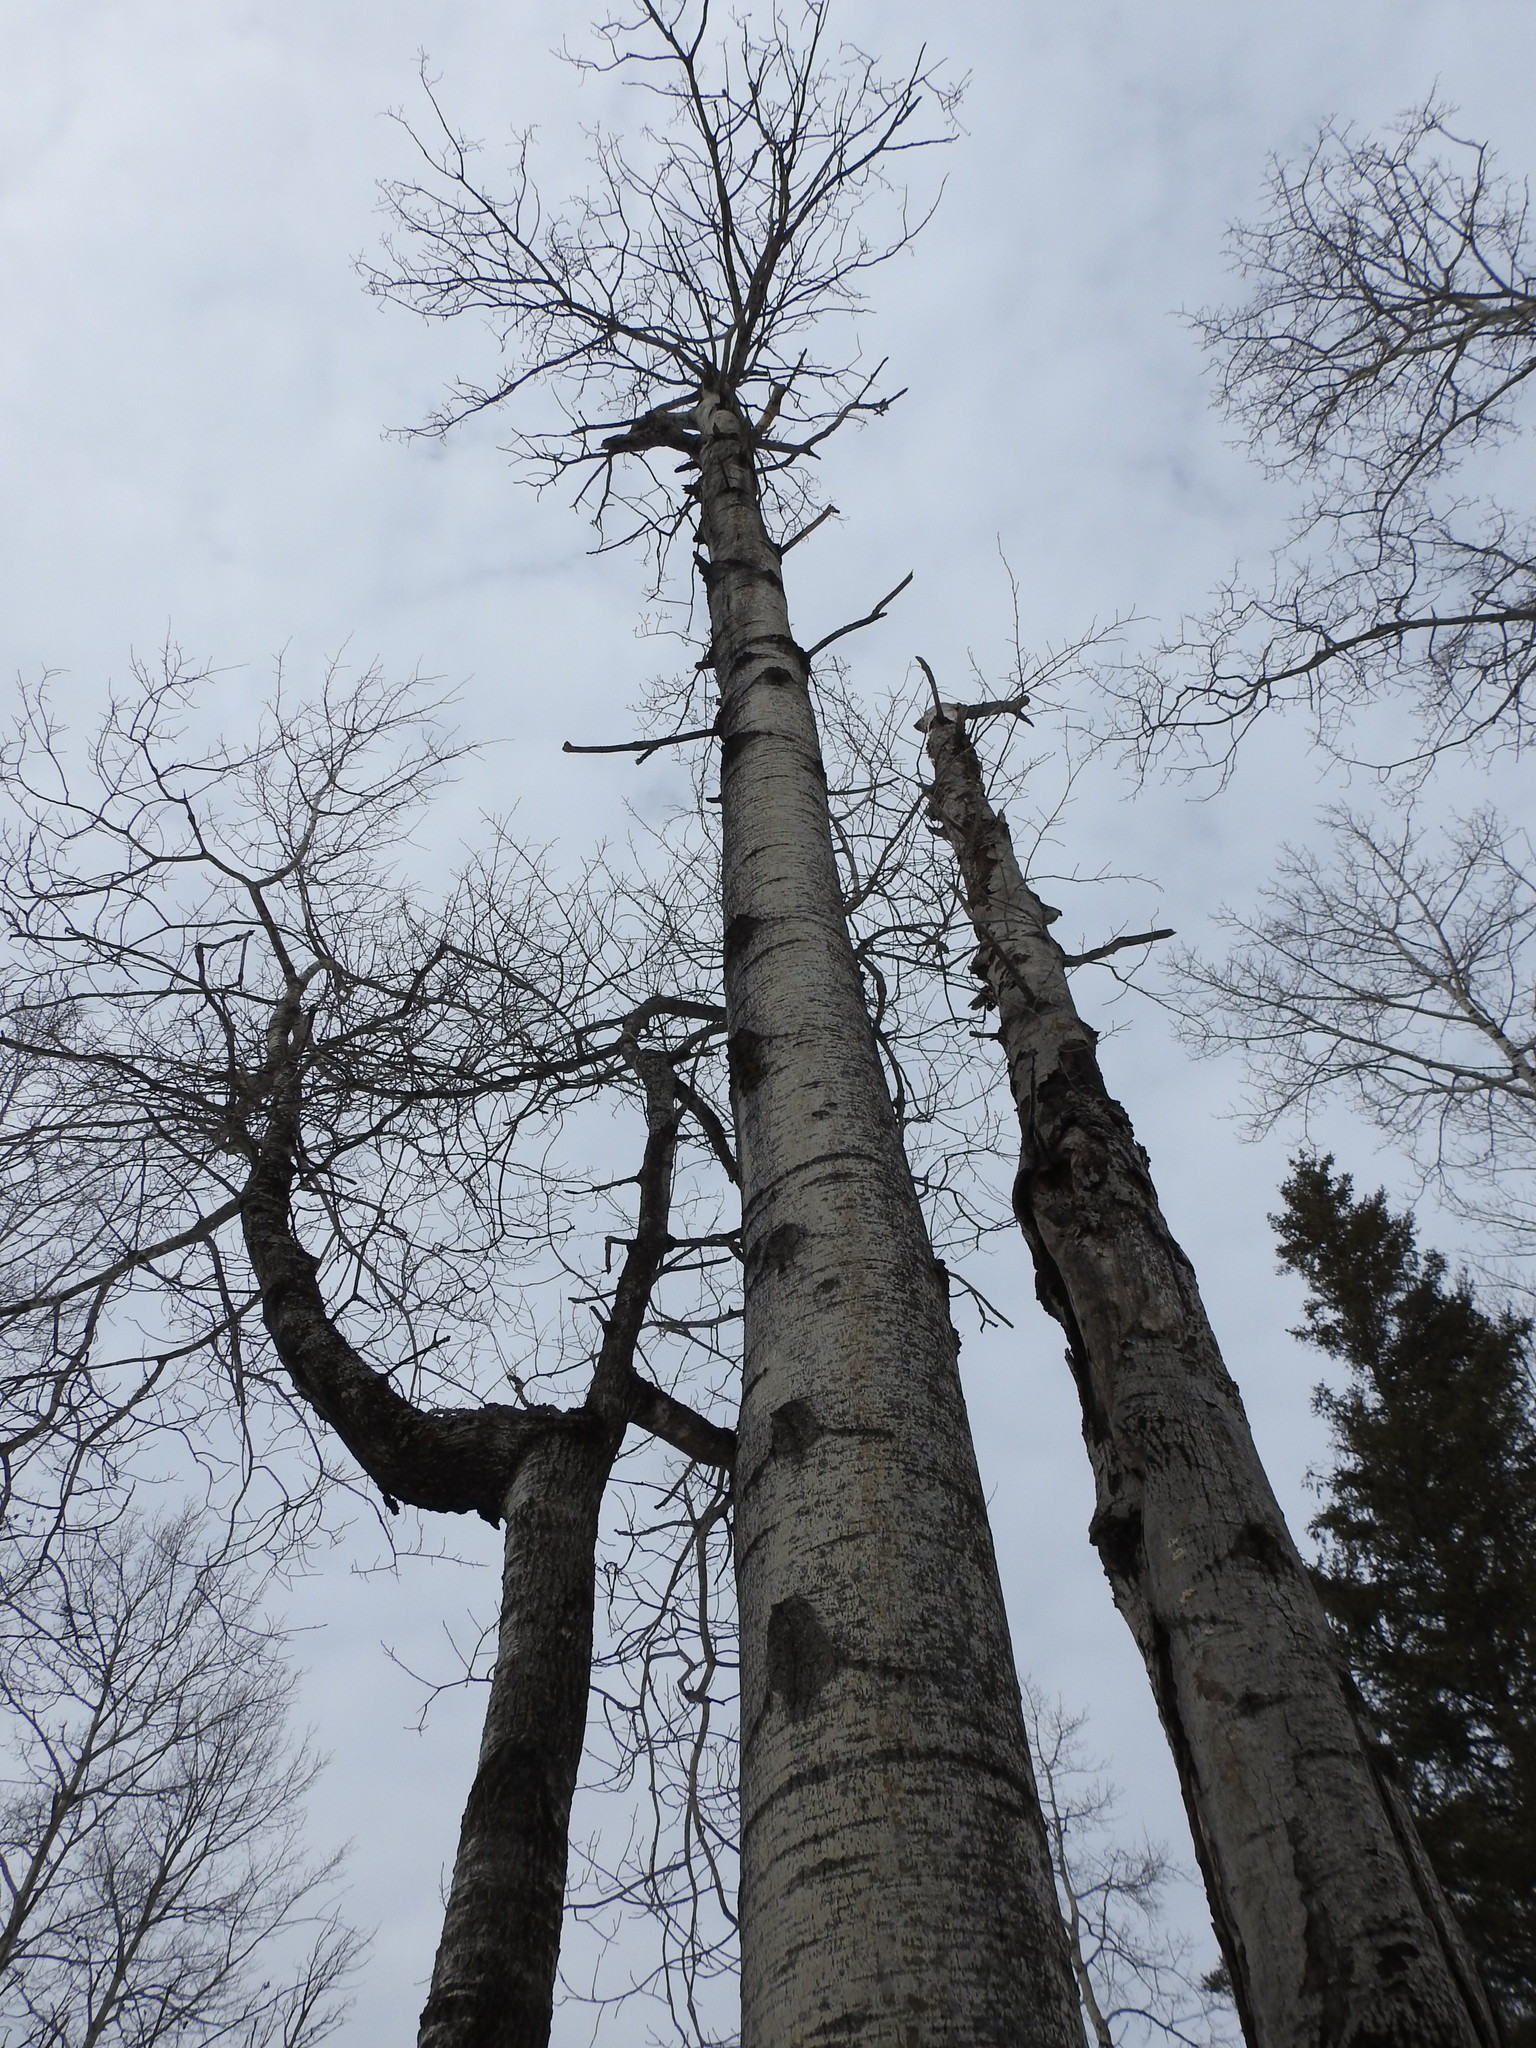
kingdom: Plantae
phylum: Tracheophyta
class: Magnoliopsida
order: Malpighiales
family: Salicaceae
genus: Populus
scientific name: Populus tremuloides
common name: Quaking aspen
